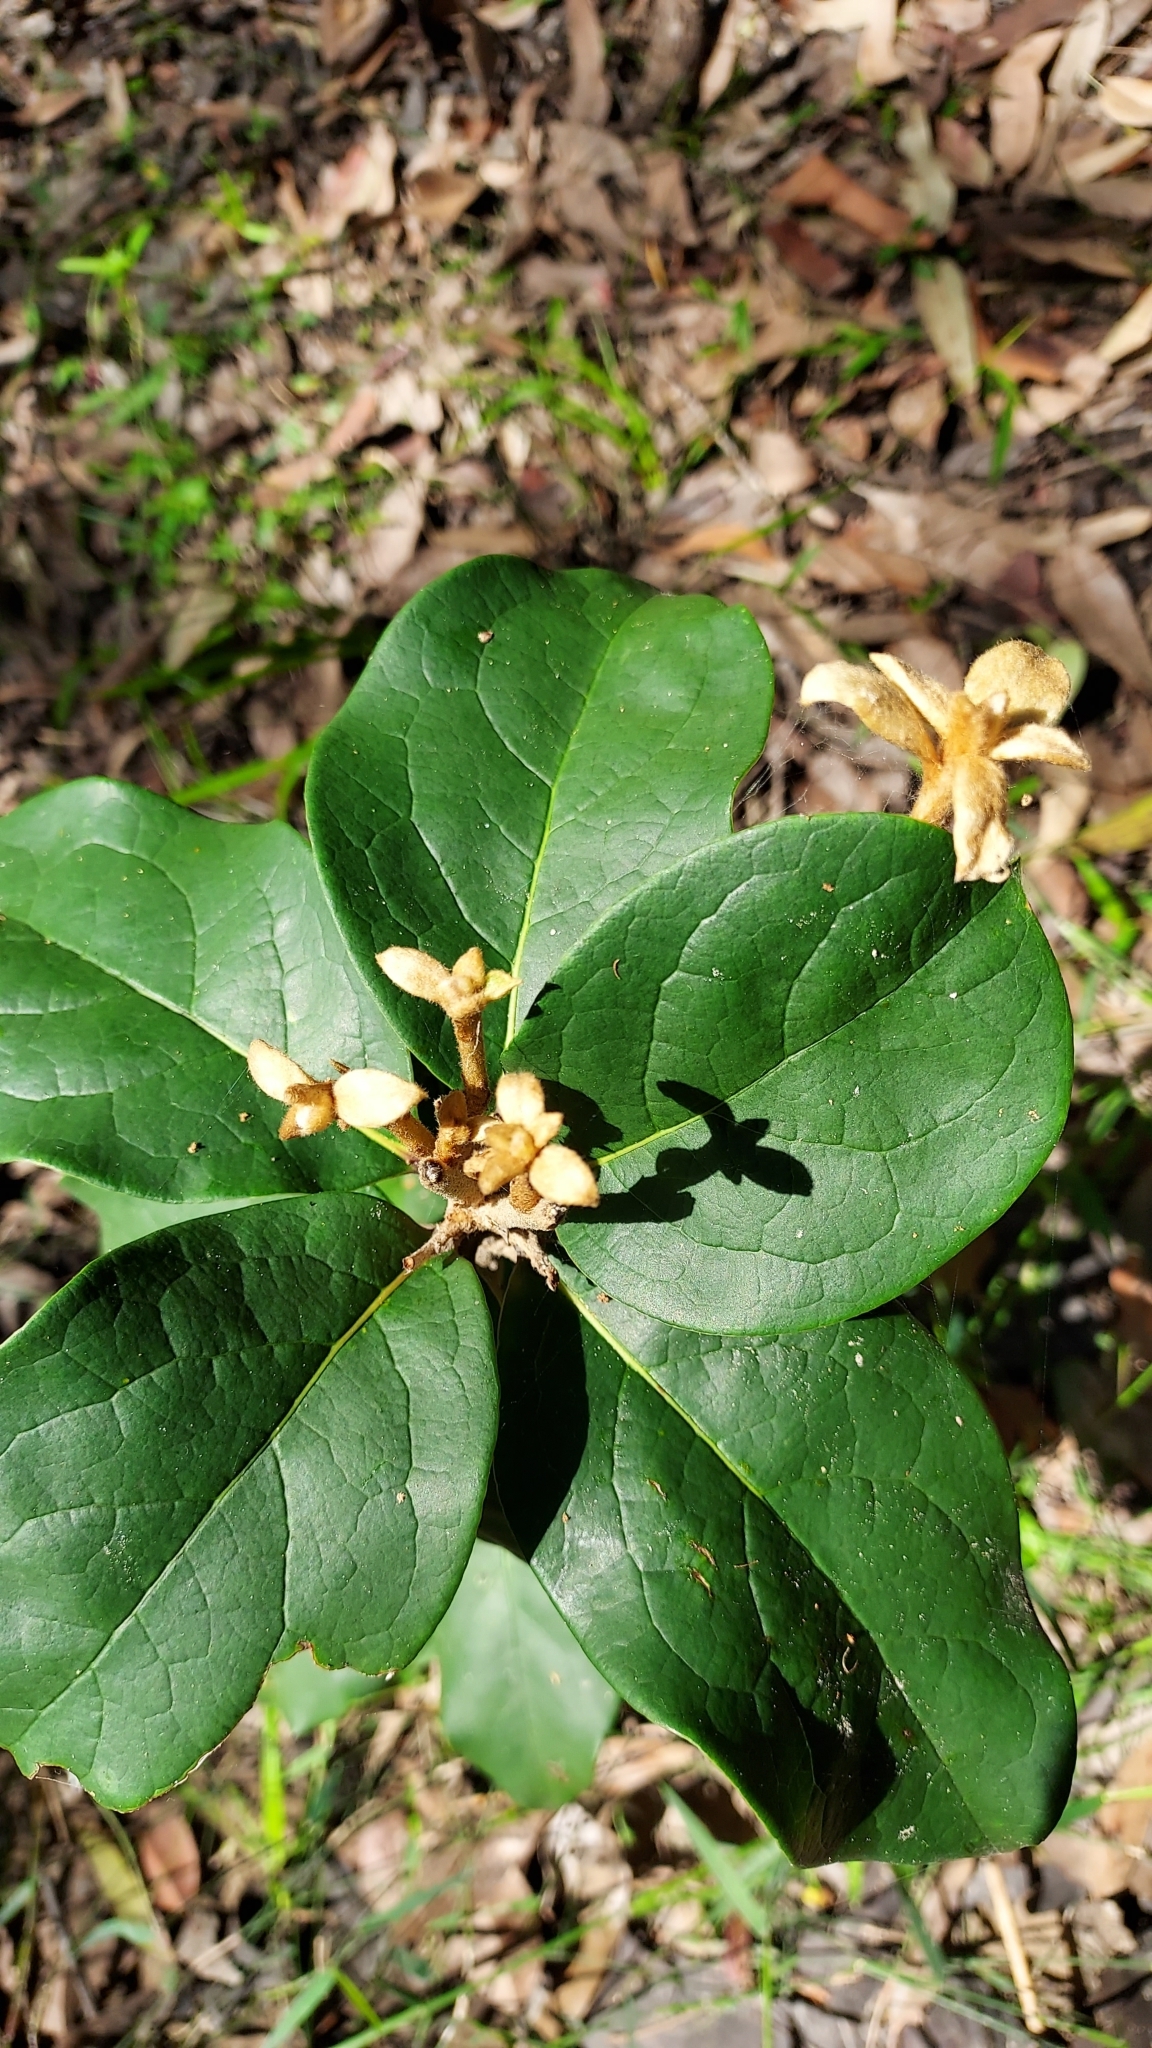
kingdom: Plantae
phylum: Tracheophyta
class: Magnoliopsida
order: Apiales
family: Pittosporaceae
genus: Pittosporum
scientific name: Pittosporum revolutum
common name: Brisbane-laurel
